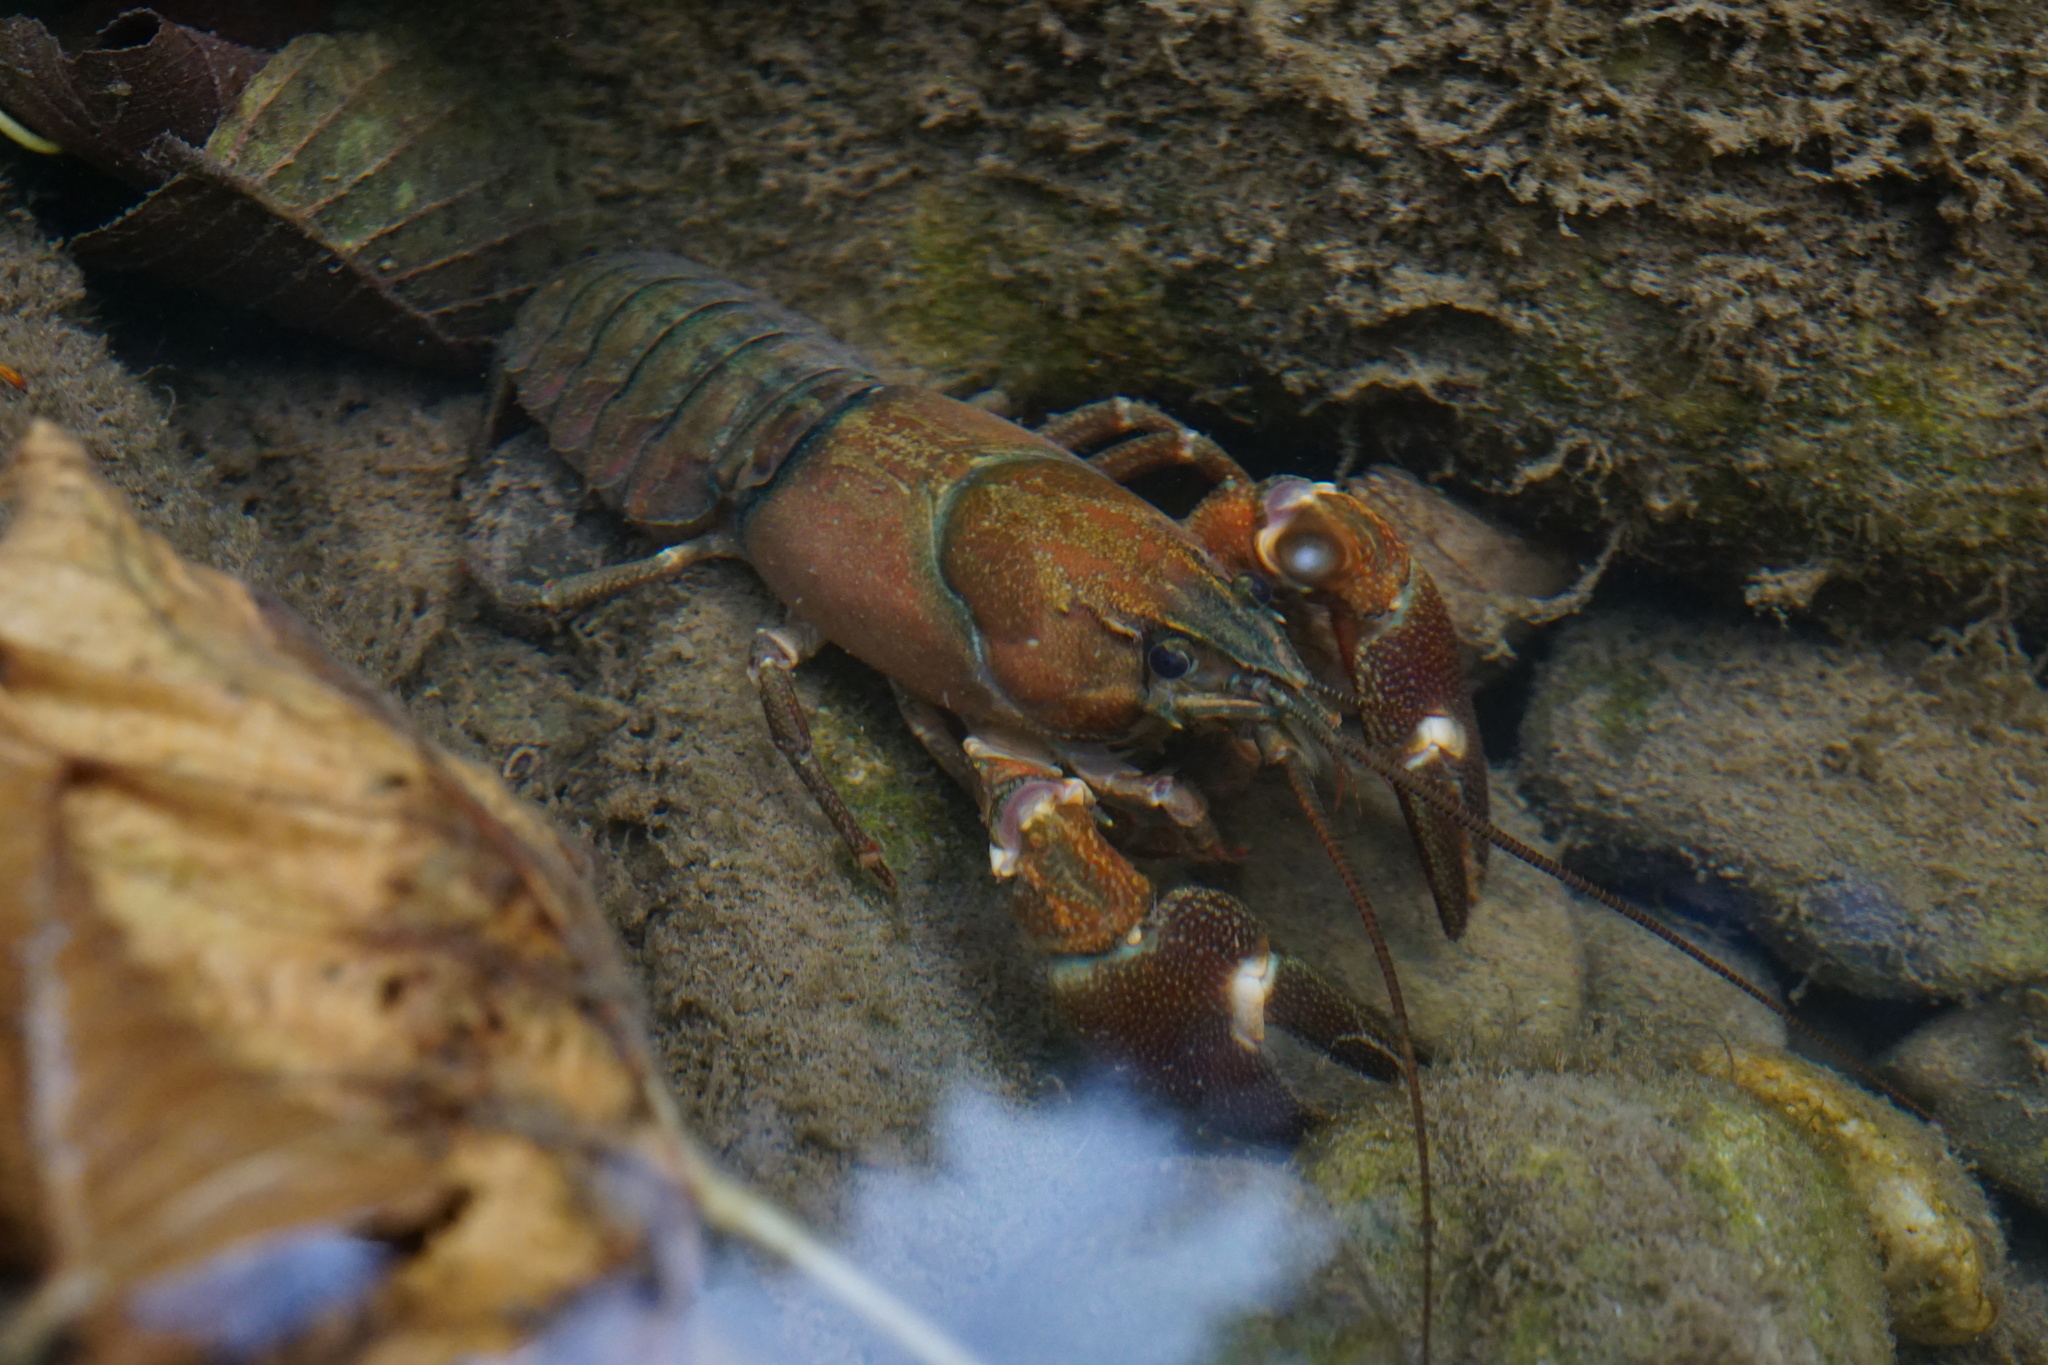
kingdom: Animalia
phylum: Arthropoda
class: Malacostraca
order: Decapoda
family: Astacidae
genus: Pacifastacus
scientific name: Pacifastacus leniusculus
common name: Signal crayfish
